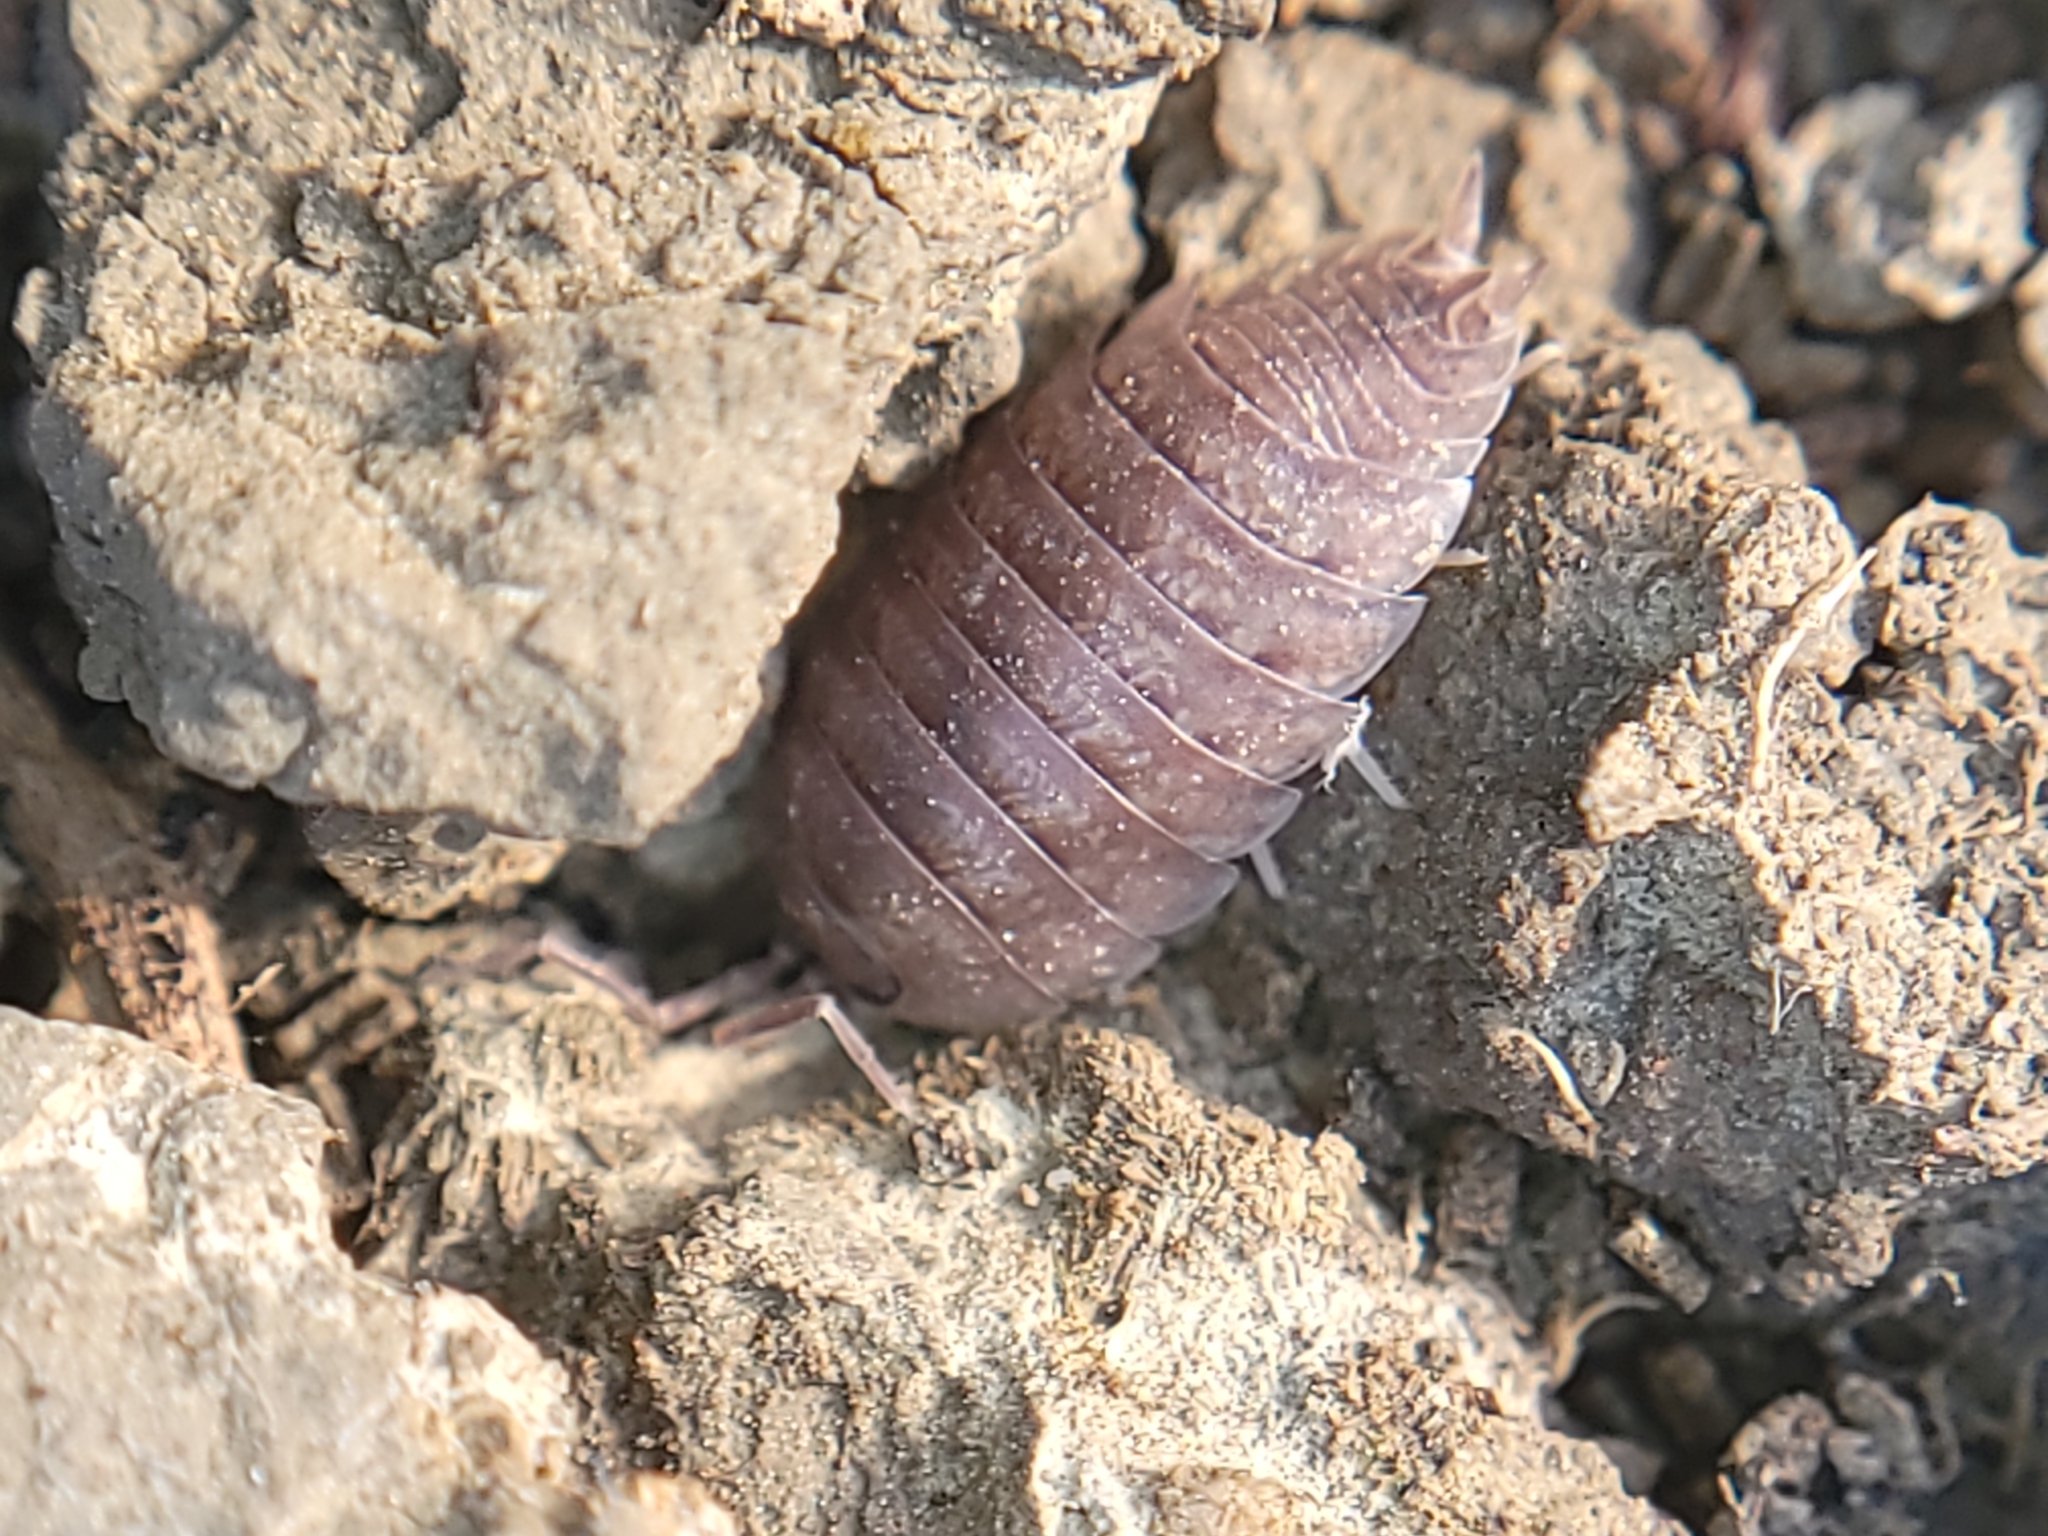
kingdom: Animalia
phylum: Arthropoda
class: Malacostraca
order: Isopoda
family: Porcellionidae
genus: Porcellio
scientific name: Porcellio laevis
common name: Swift woodlouse
